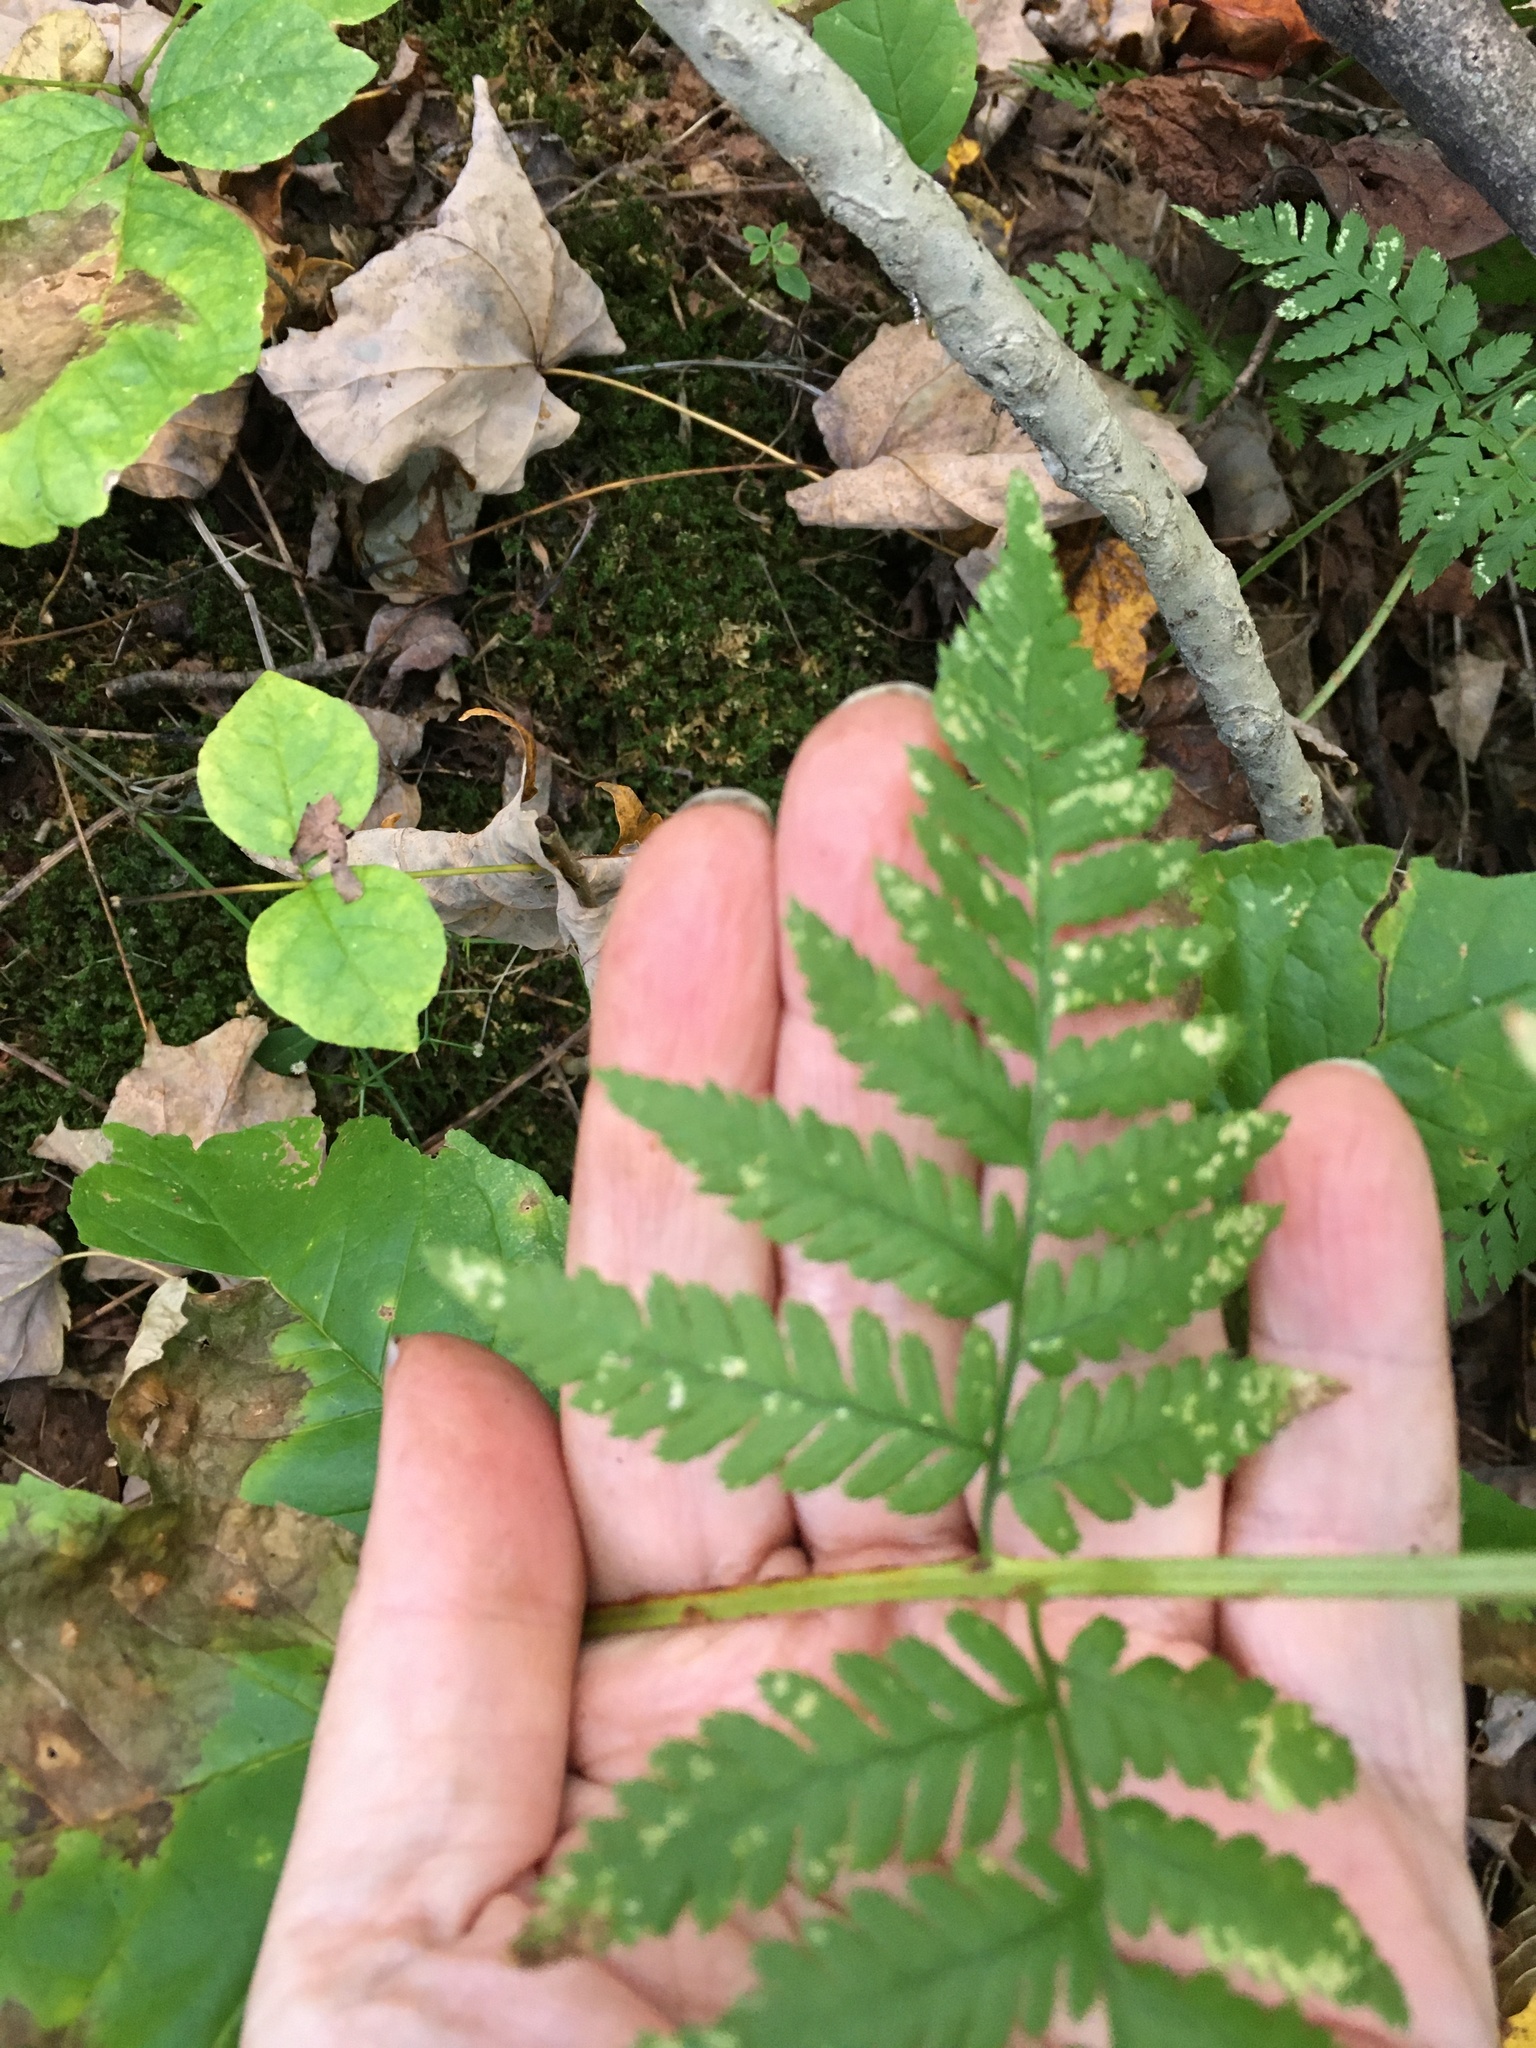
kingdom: Plantae
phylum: Tracheophyta
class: Polypodiopsida
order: Polypodiales
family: Dryopteridaceae
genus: Dryopteris
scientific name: Dryopteris carthusiana
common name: Narrow buckler-fern
